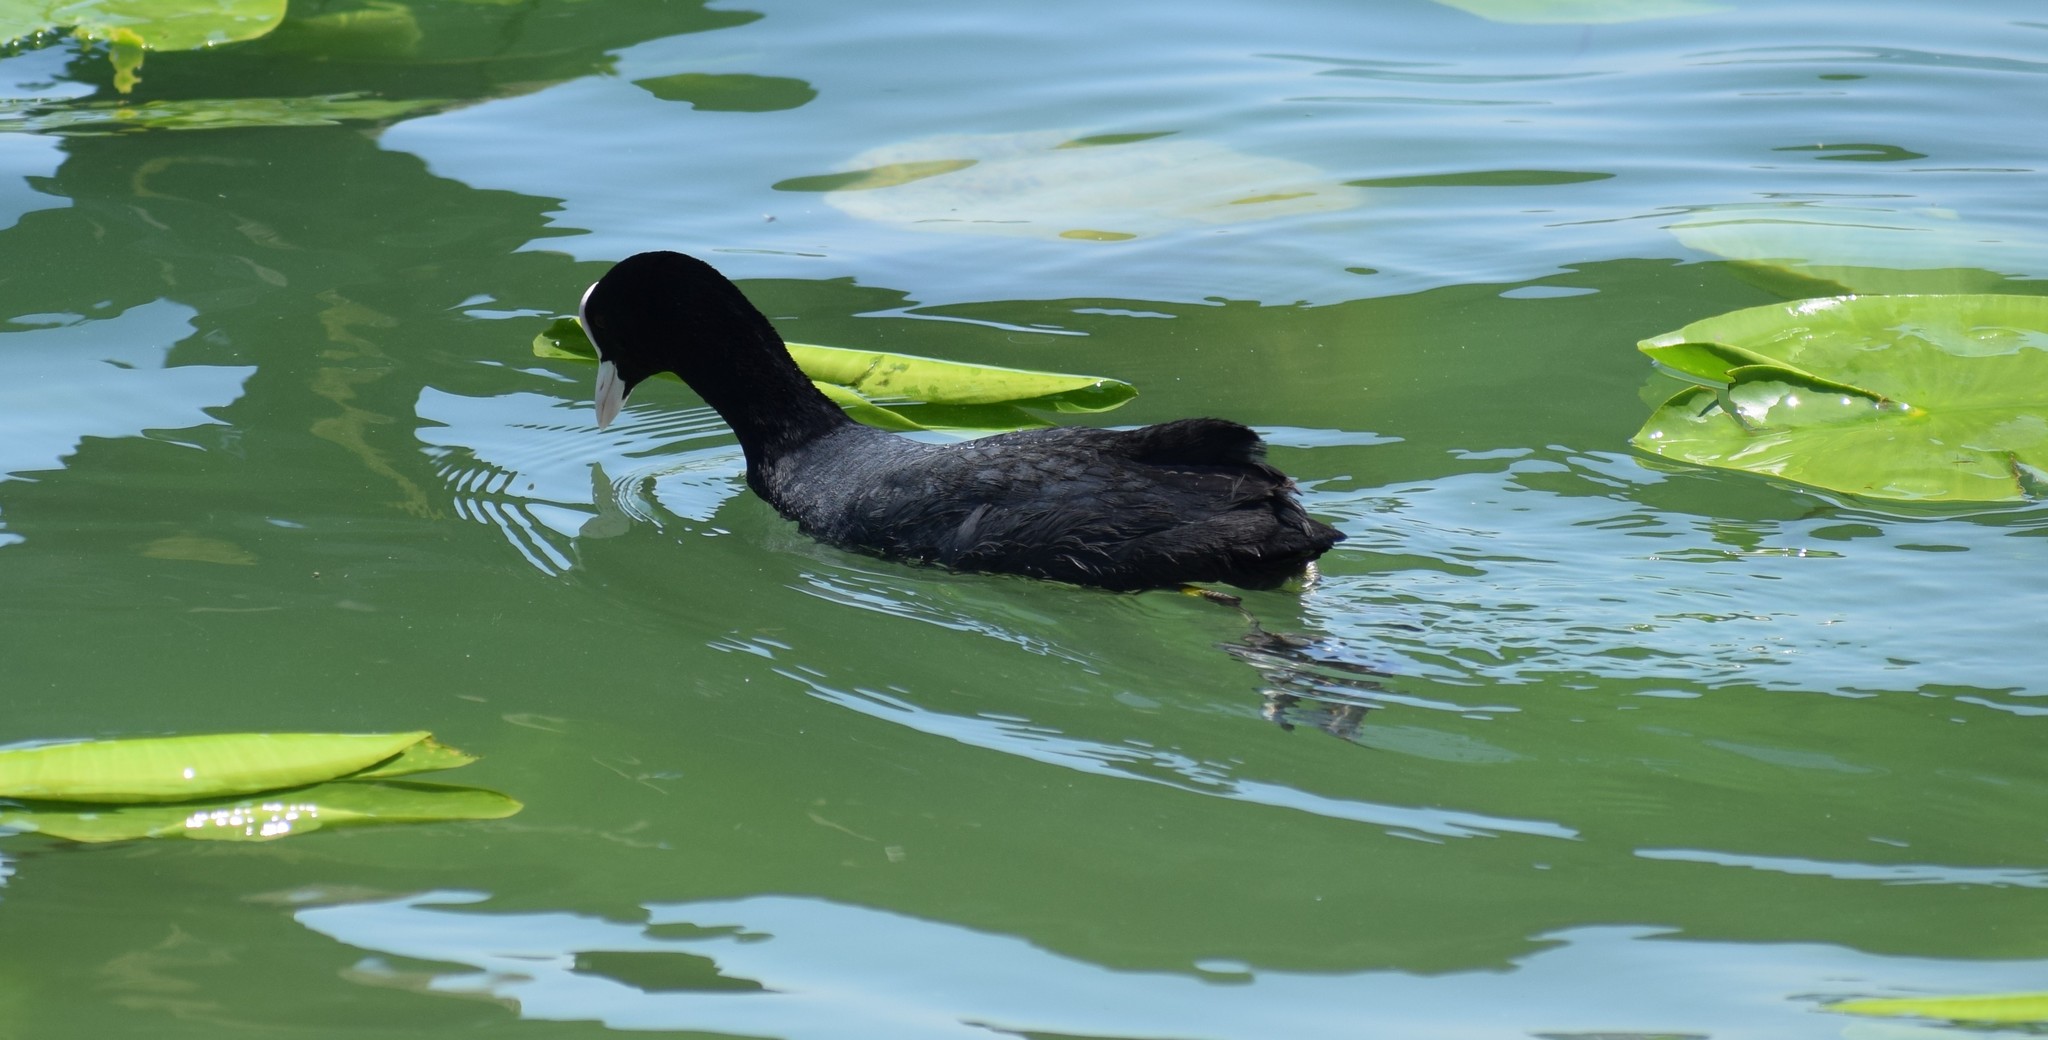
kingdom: Animalia
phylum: Chordata
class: Aves
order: Gruiformes
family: Rallidae
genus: Fulica
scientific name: Fulica atra
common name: Eurasian coot
